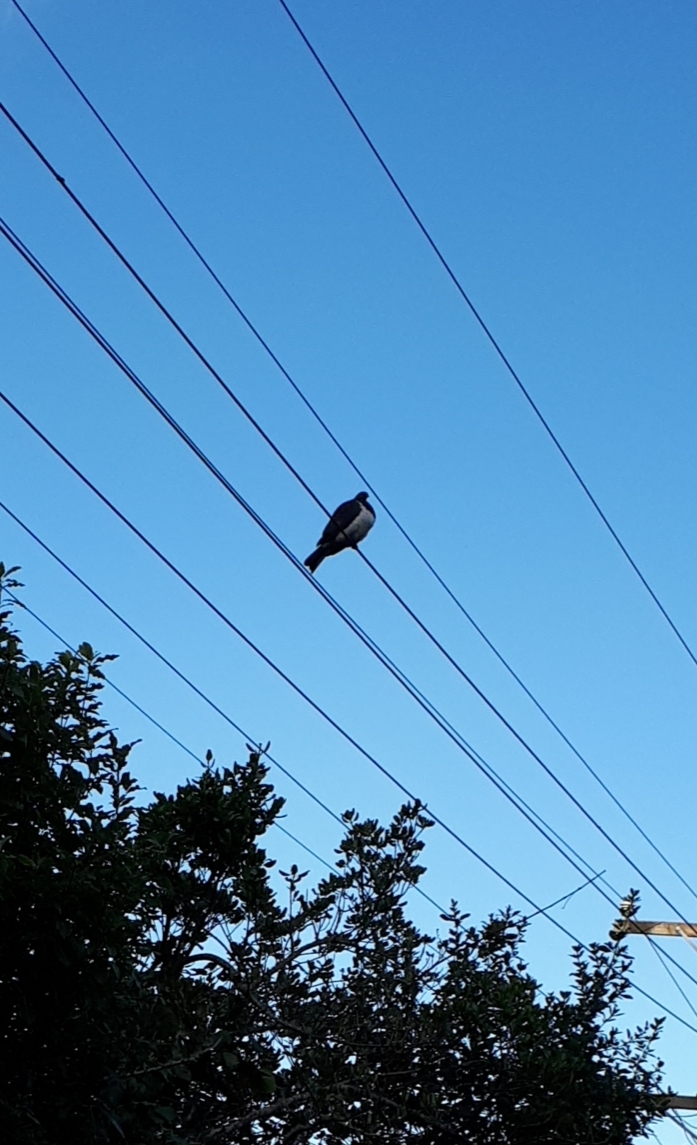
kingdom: Animalia
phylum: Chordata
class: Aves
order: Columbiformes
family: Columbidae
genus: Hemiphaga
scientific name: Hemiphaga novaeseelandiae
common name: New zealand pigeon
